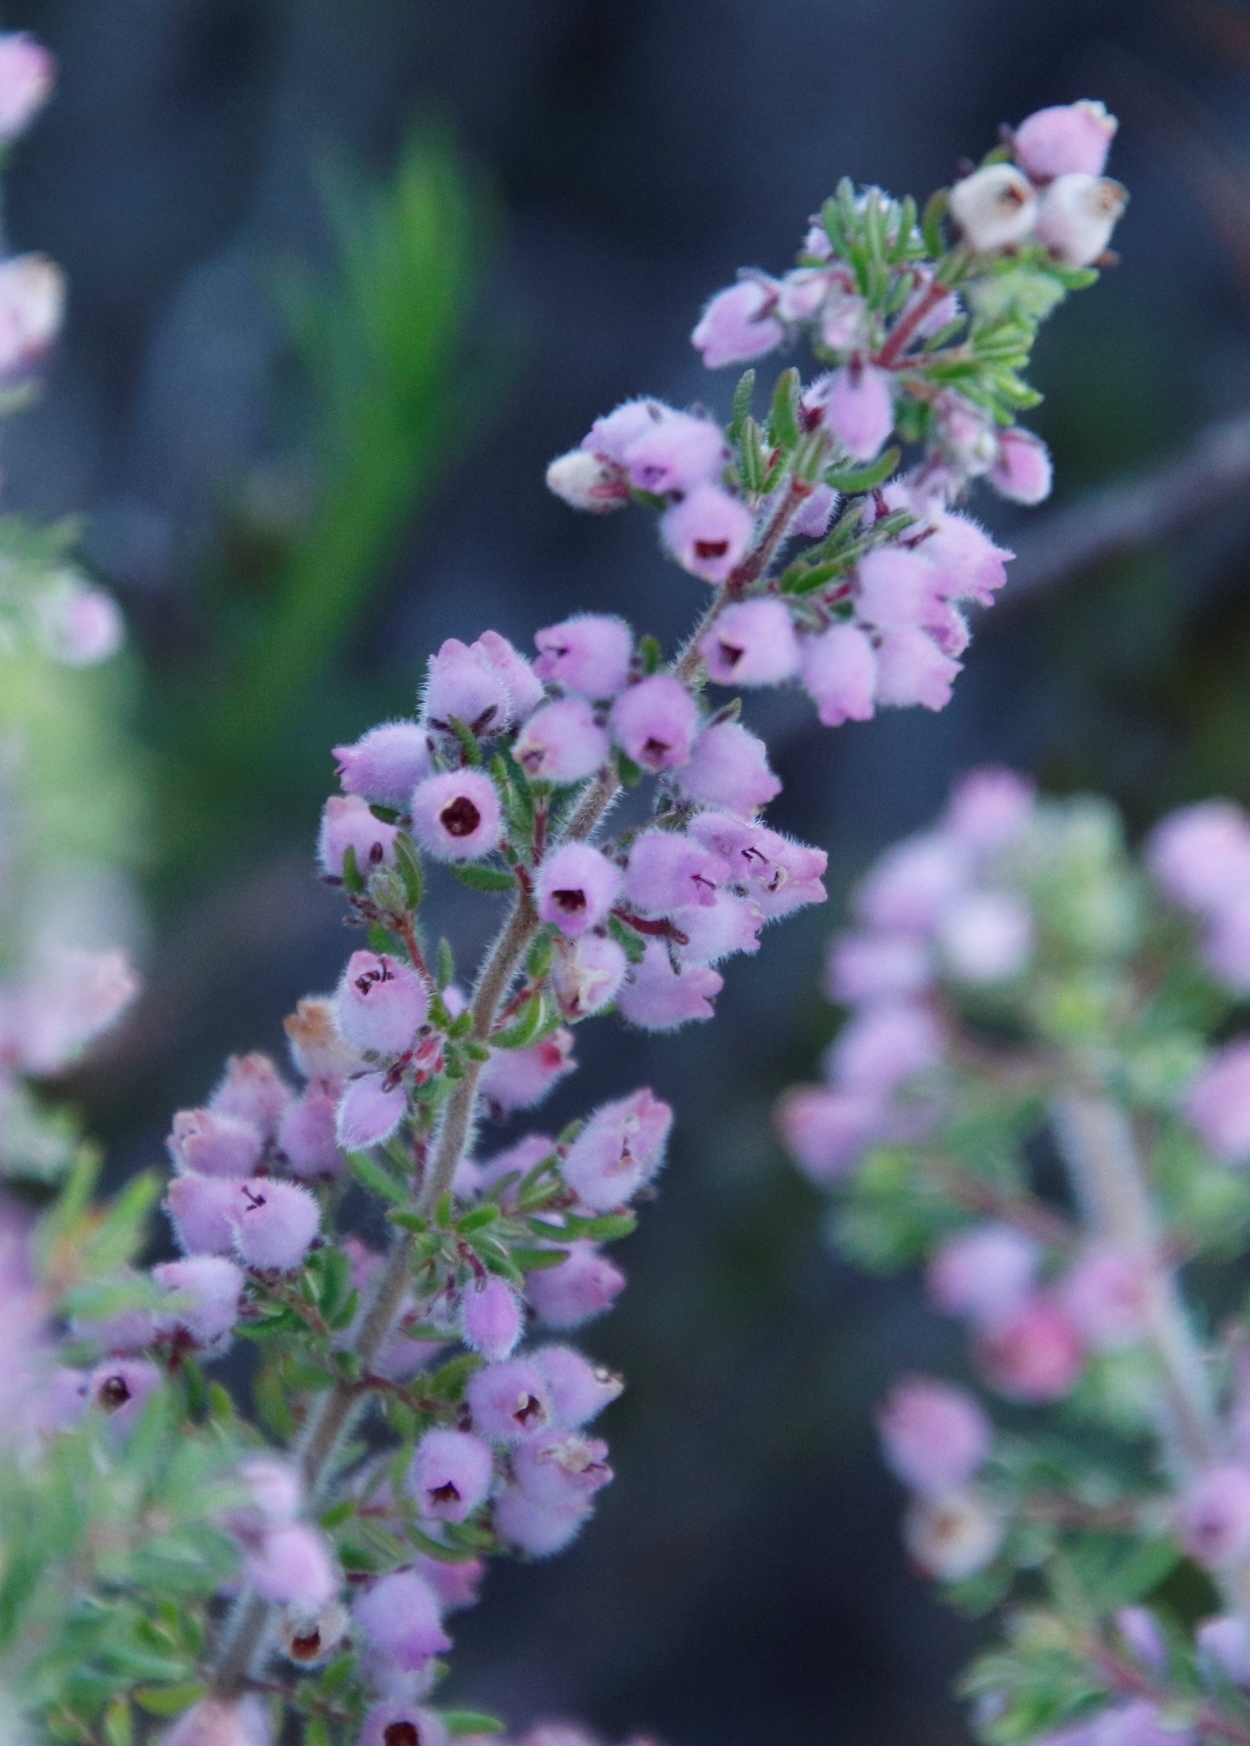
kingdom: Plantae
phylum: Tracheophyta
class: Magnoliopsida
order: Ericales
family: Ericaceae
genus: Erica
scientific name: Erica hirtiflora
